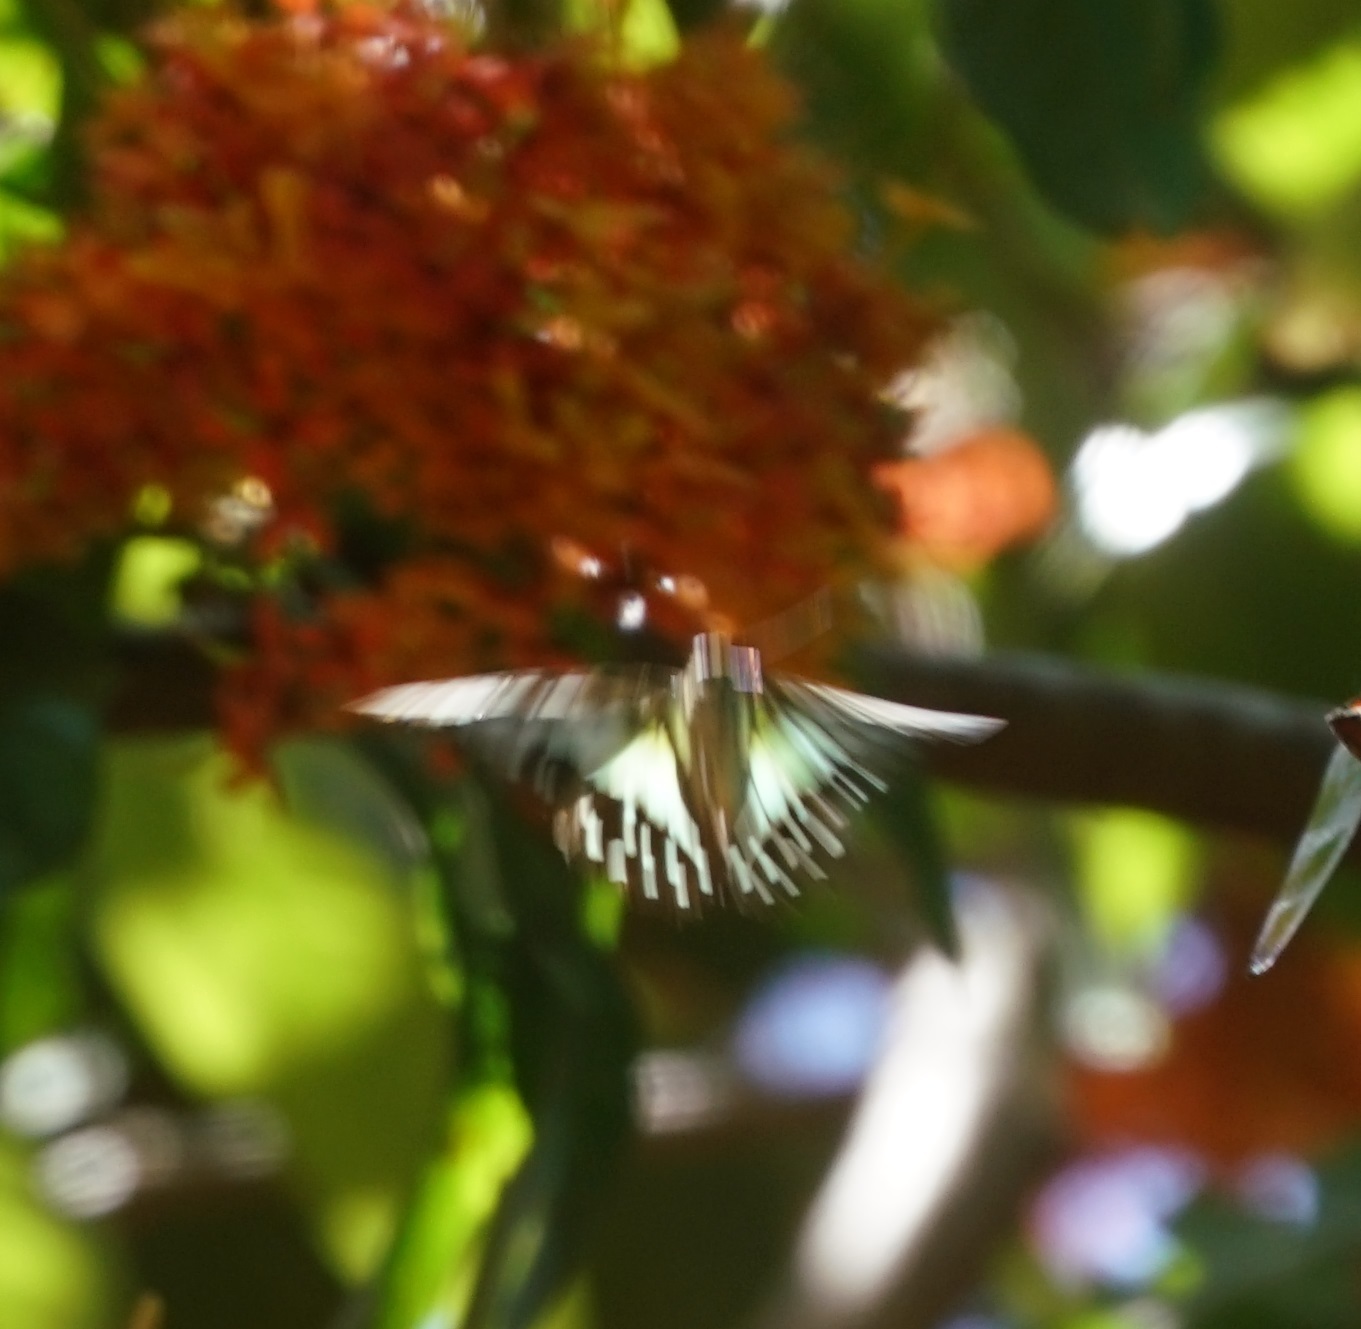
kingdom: Animalia
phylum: Arthropoda
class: Insecta
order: Lepidoptera
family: Papilionidae
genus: Graphium
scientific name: Graphium eurypylus
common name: Great jay
